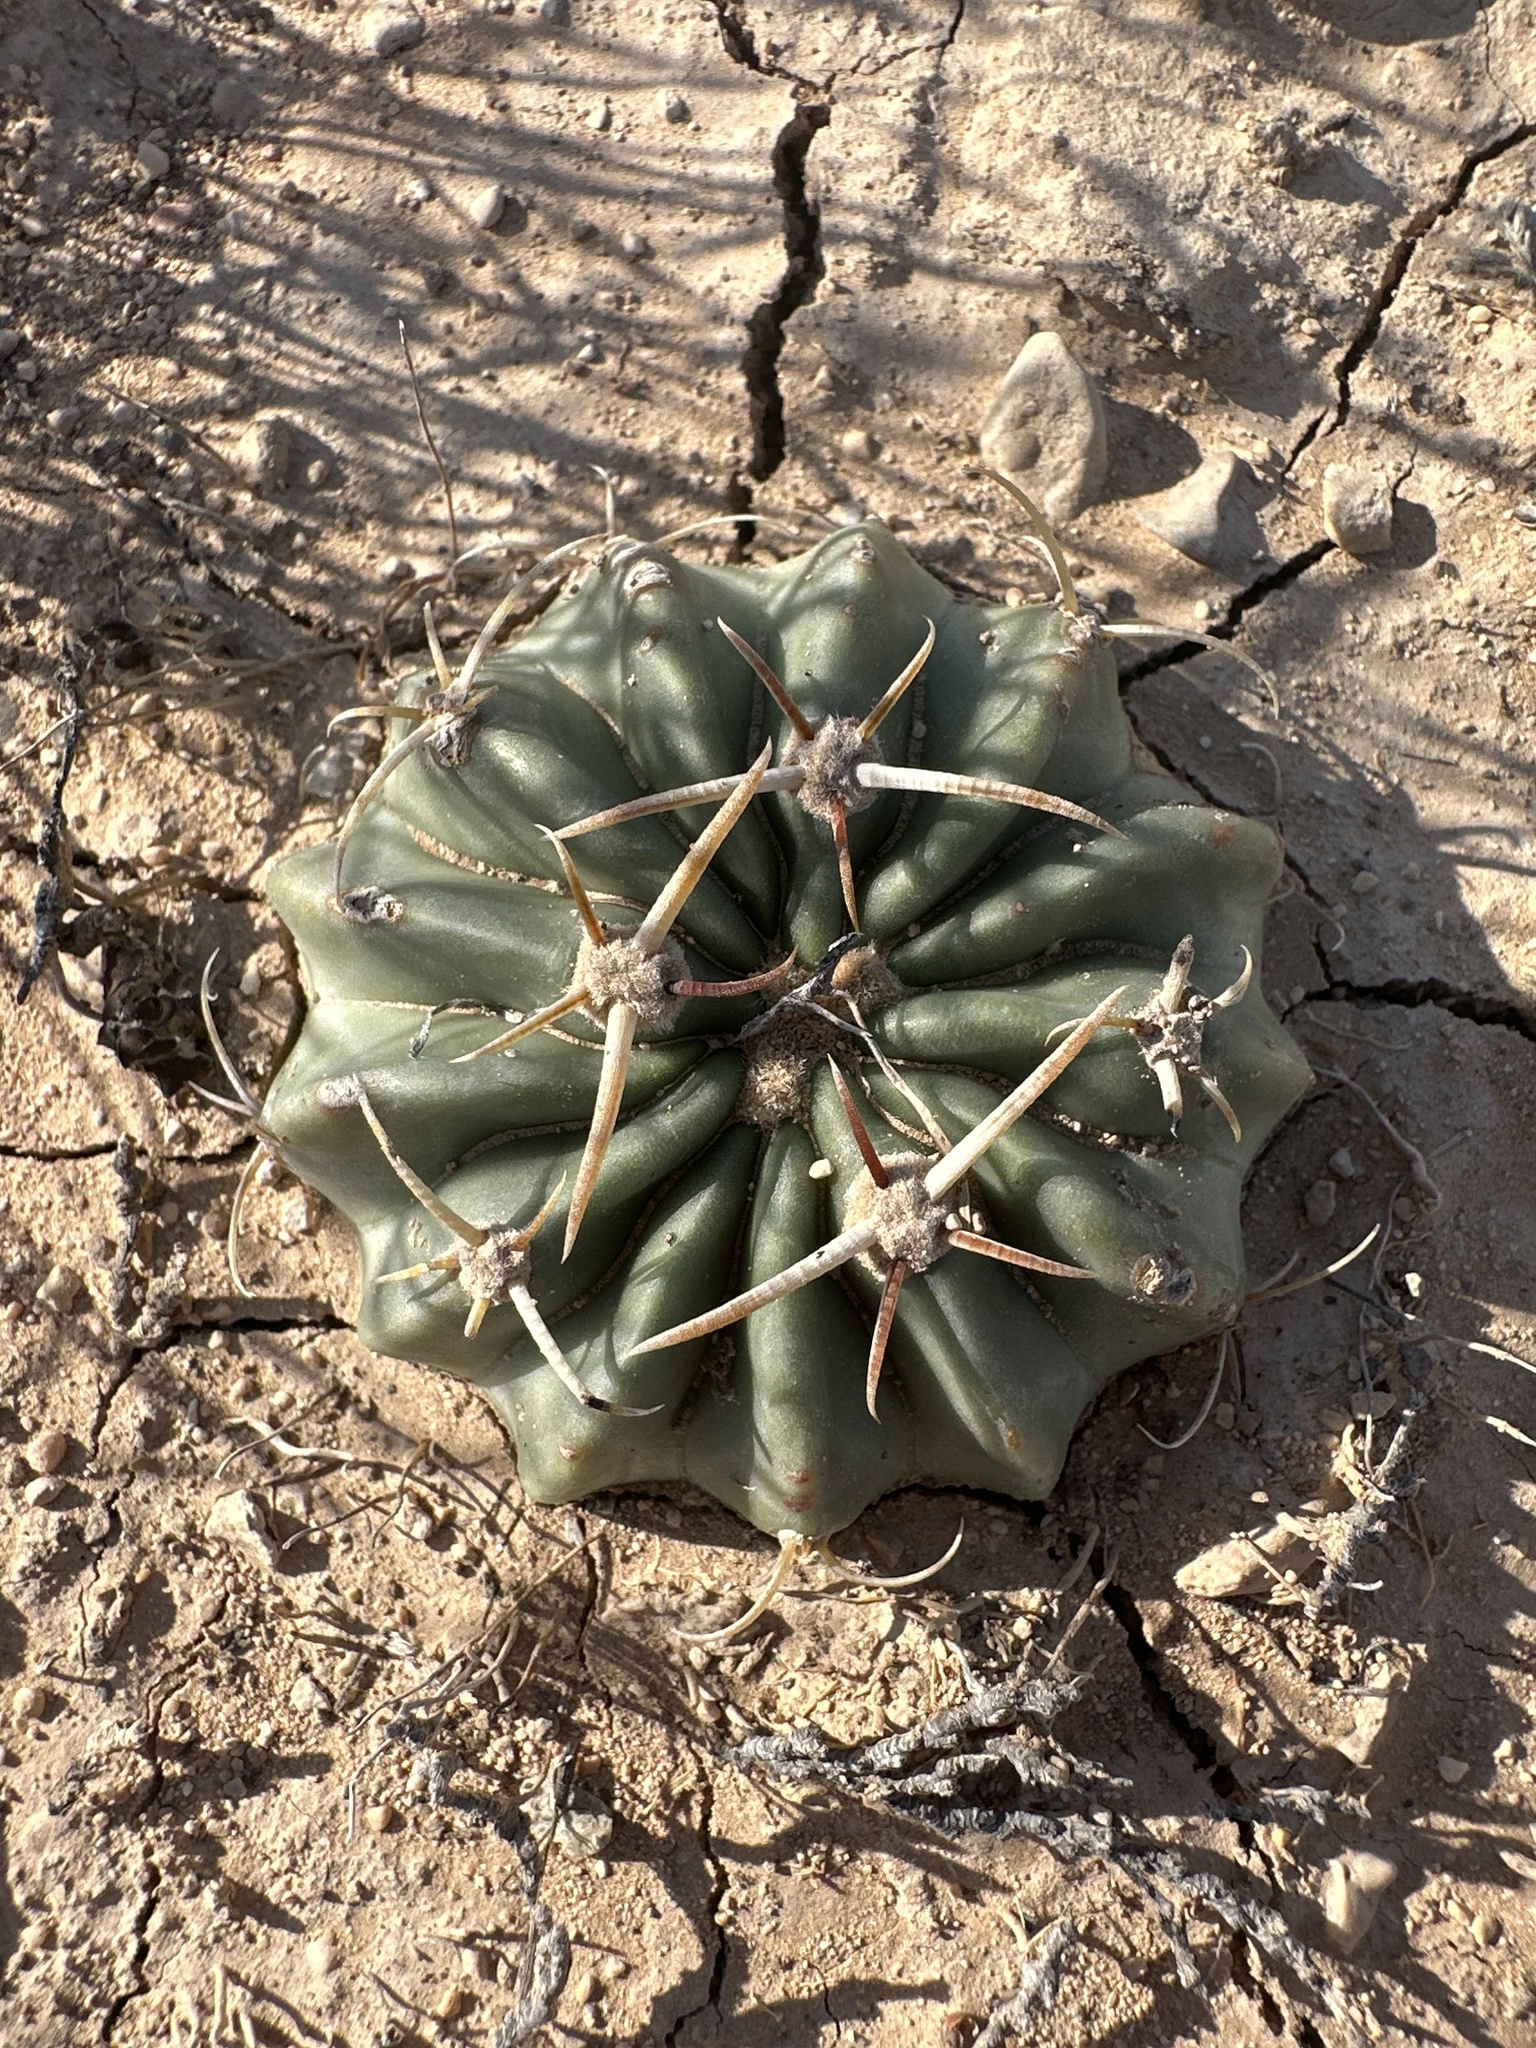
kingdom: Plantae
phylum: Tracheophyta
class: Magnoliopsida
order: Caryophyllales
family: Cactaceae
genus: Echinocactus
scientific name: Echinocactus texensis
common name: Devil's pincushion
